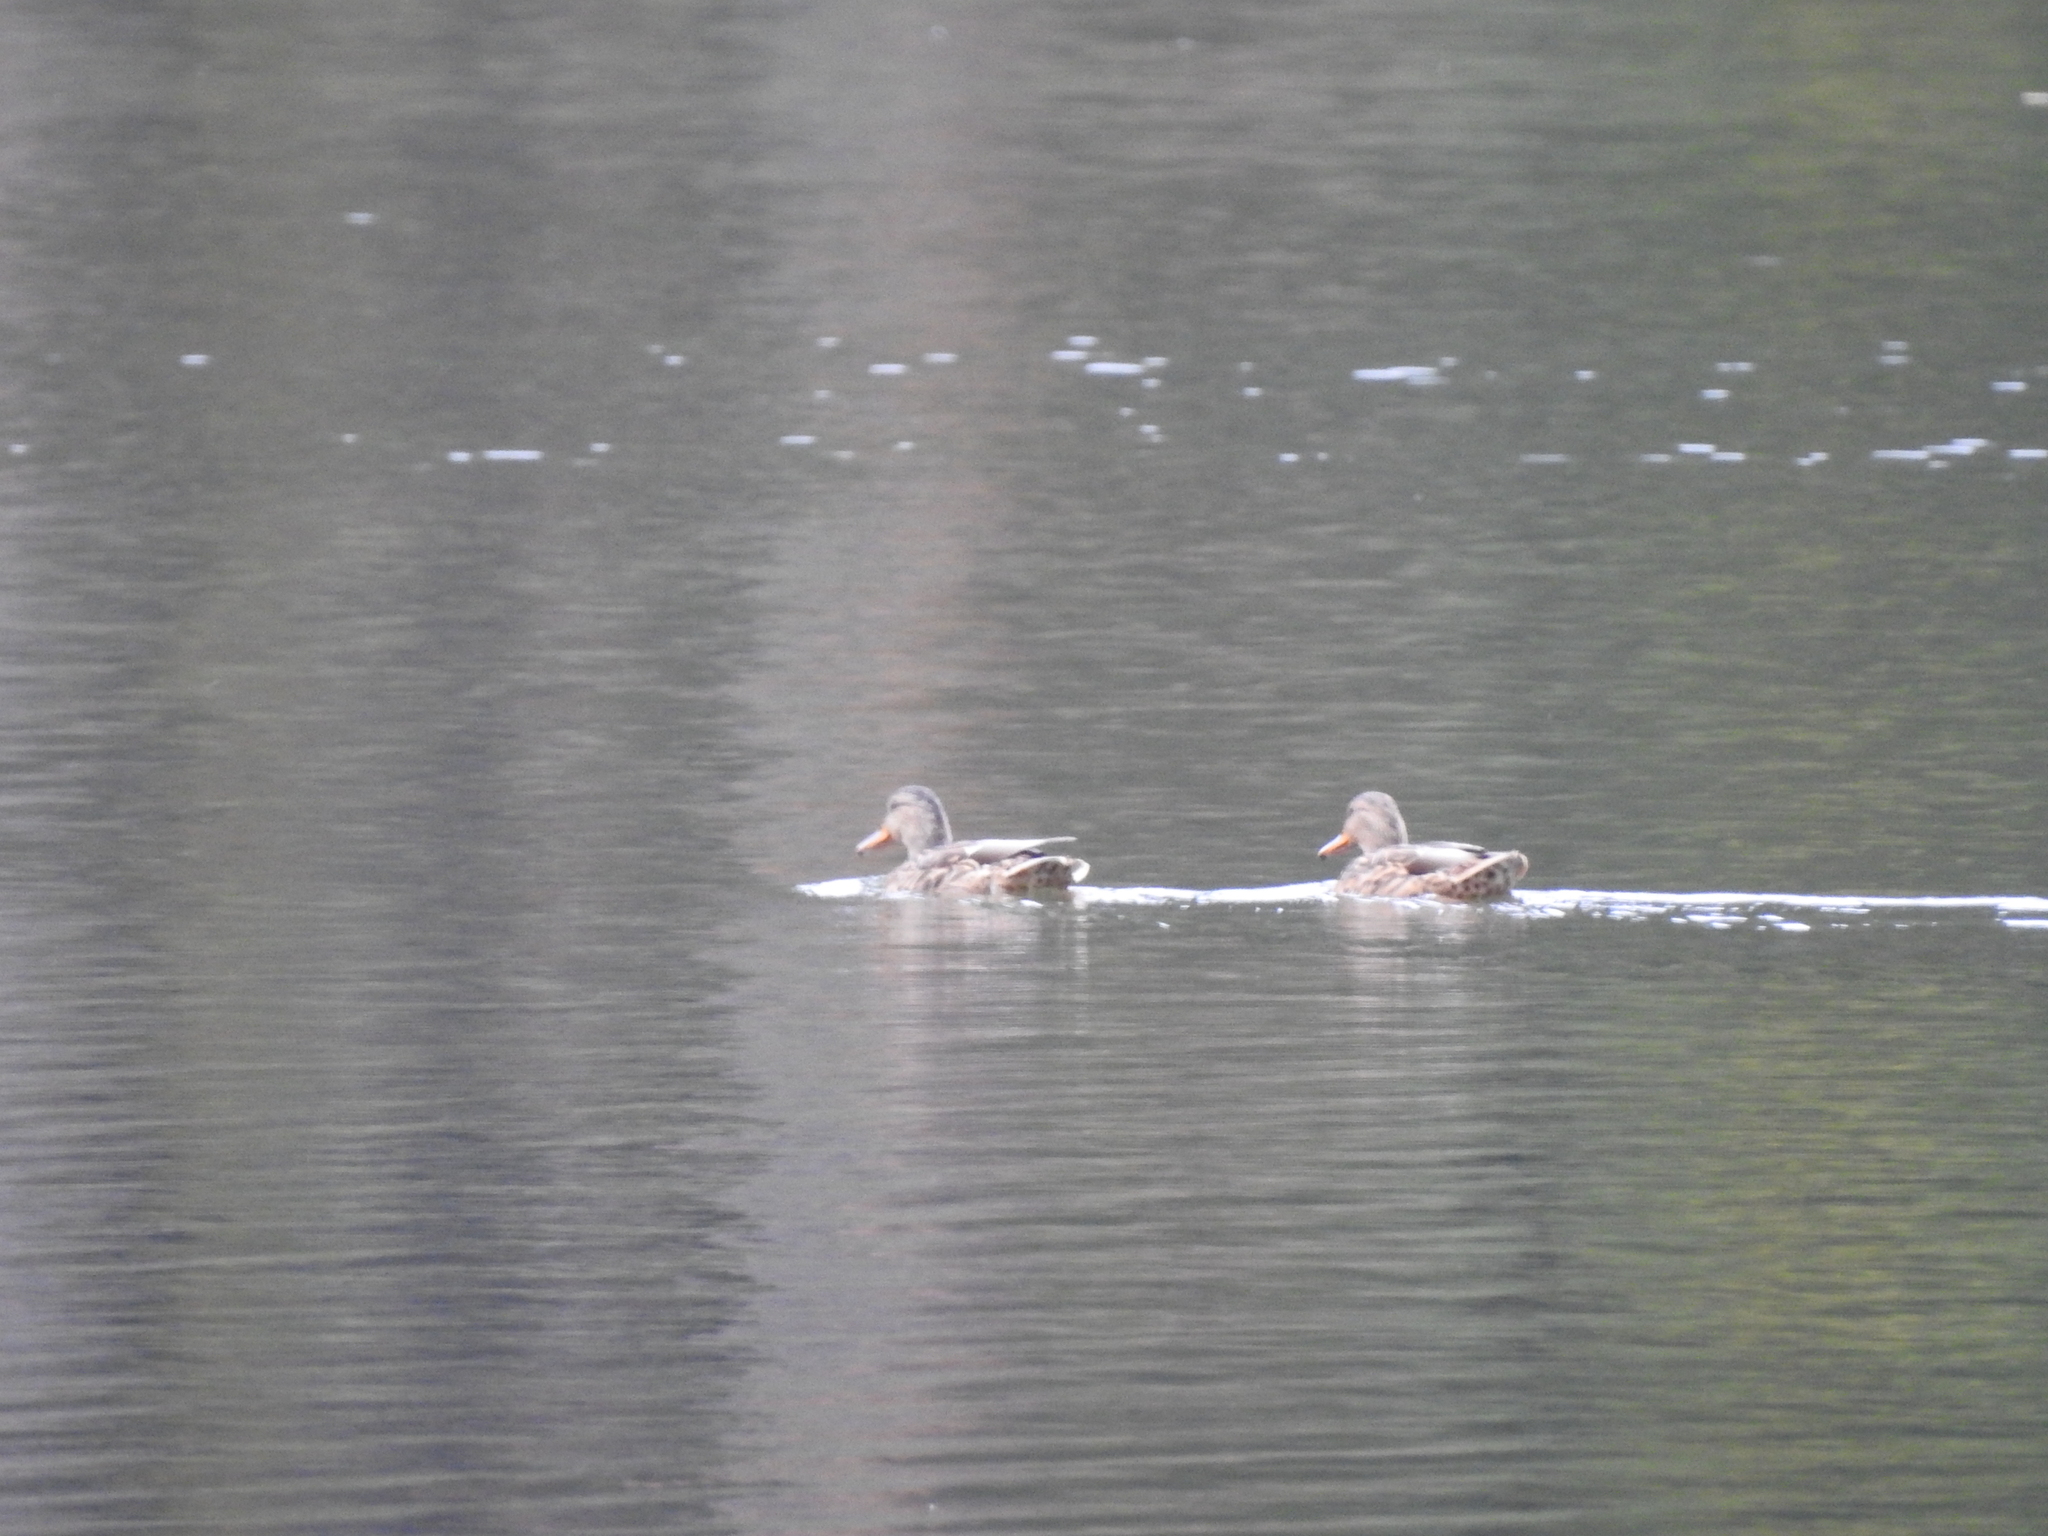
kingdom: Animalia
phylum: Chordata
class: Aves
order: Anseriformes
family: Anatidae
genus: Anas
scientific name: Anas platyrhynchos
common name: Mallard
